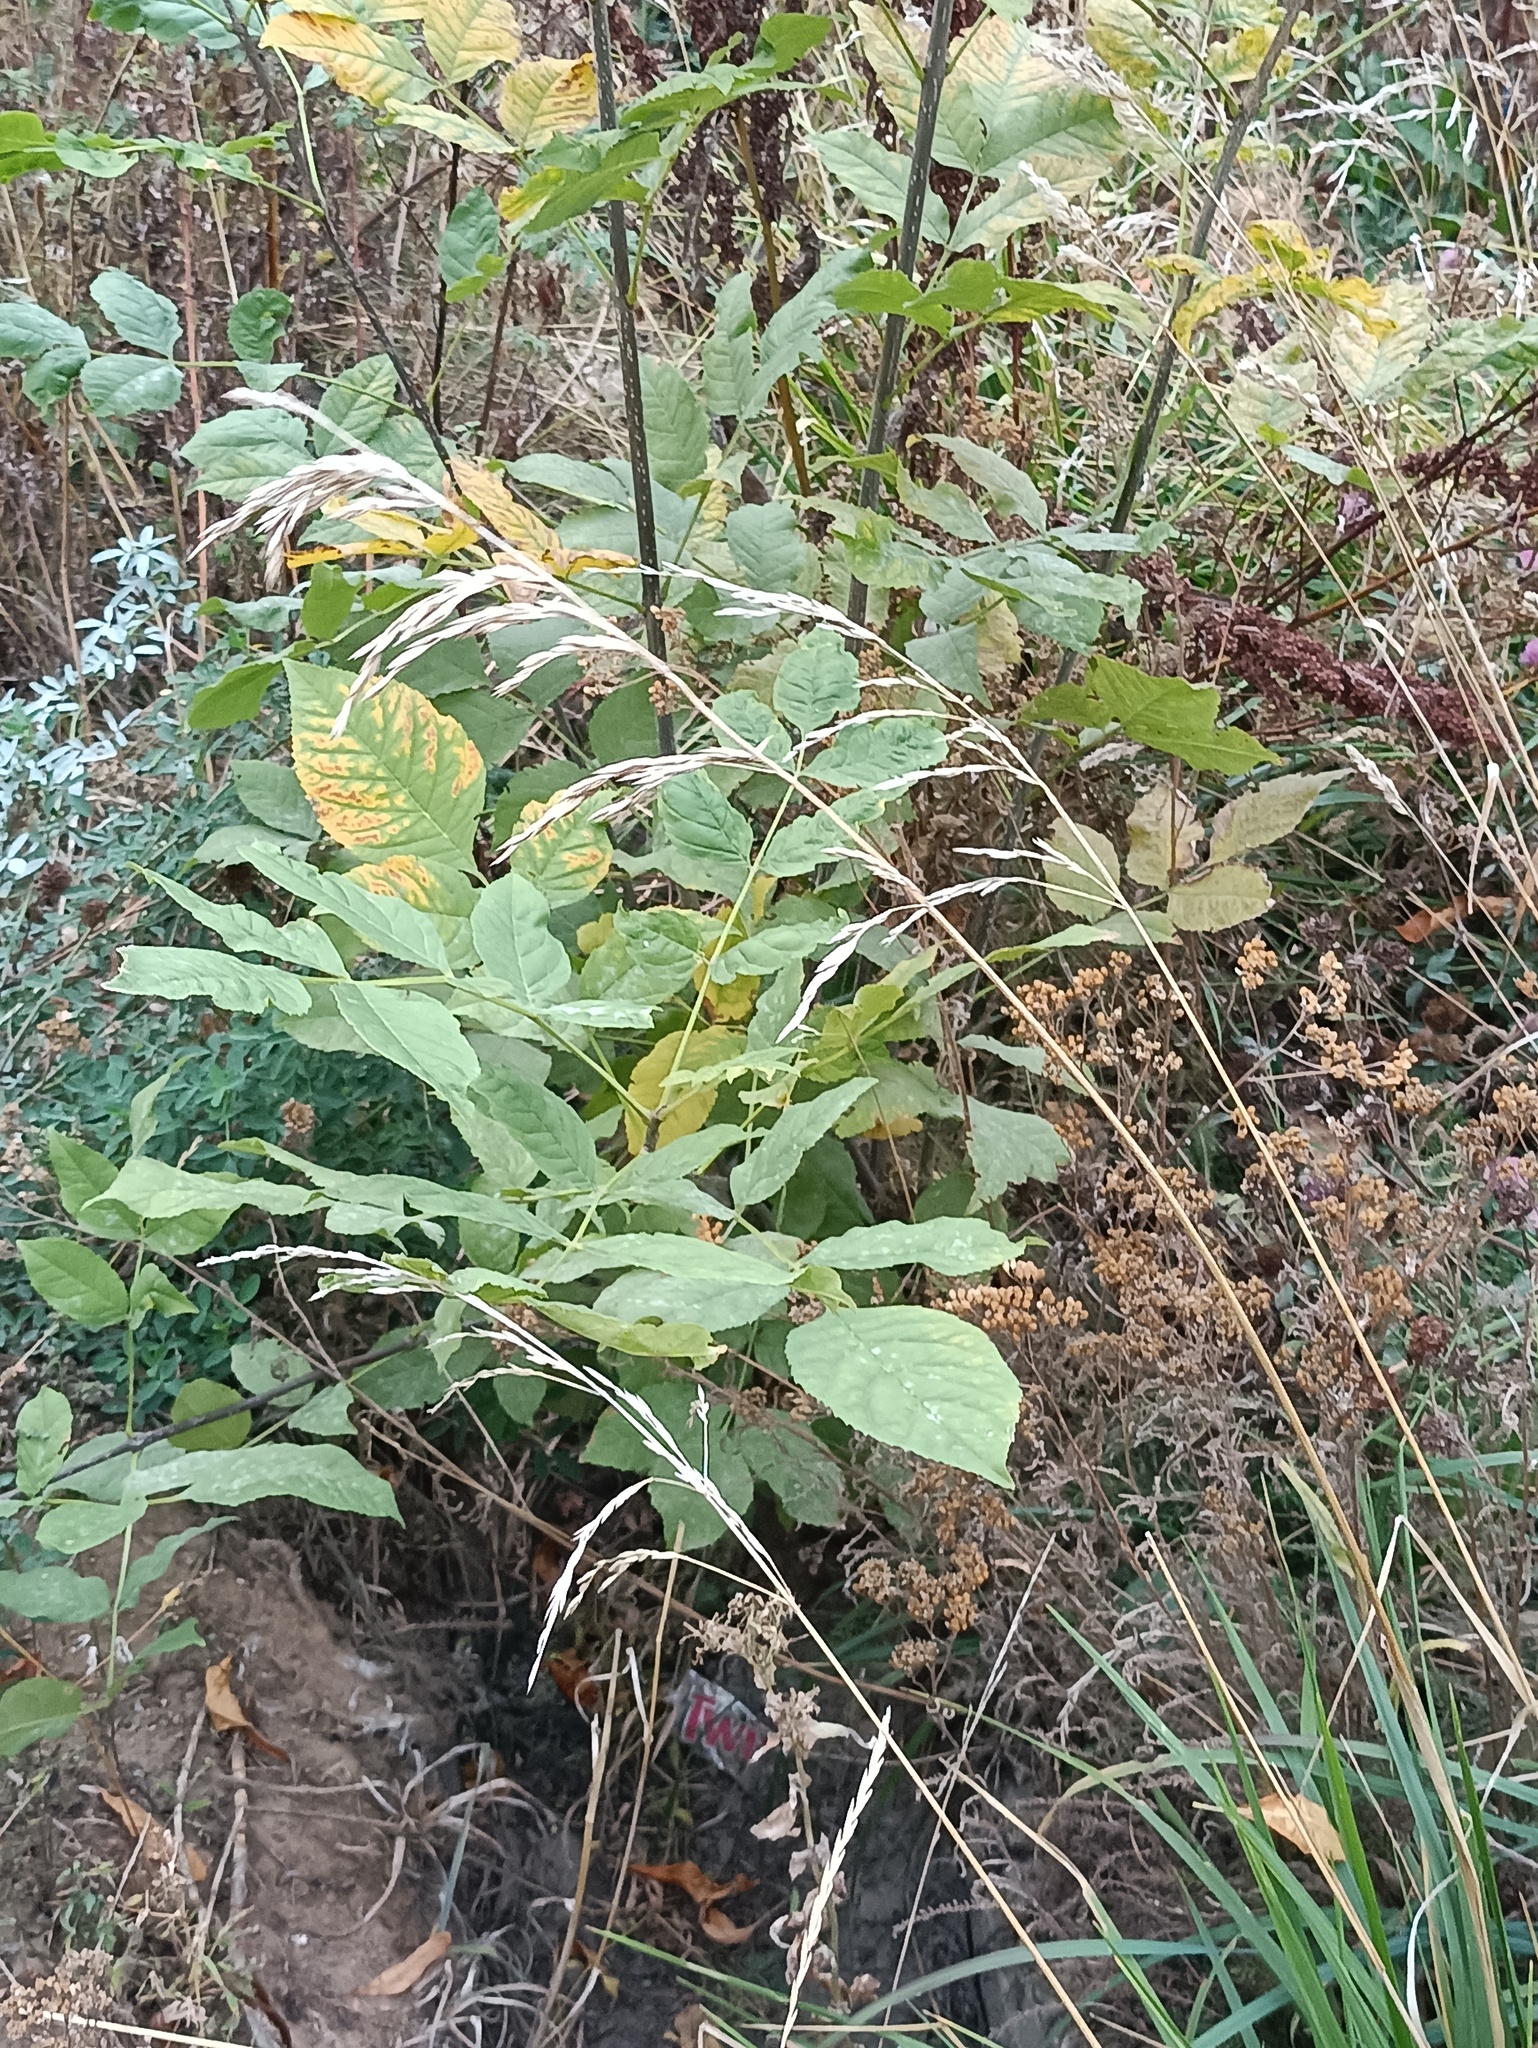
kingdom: Plantae
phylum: Tracheophyta
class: Liliopsida
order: Poales
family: Poaceae
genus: Lolium
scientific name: Lolium arundinaceum
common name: Reed fescue
